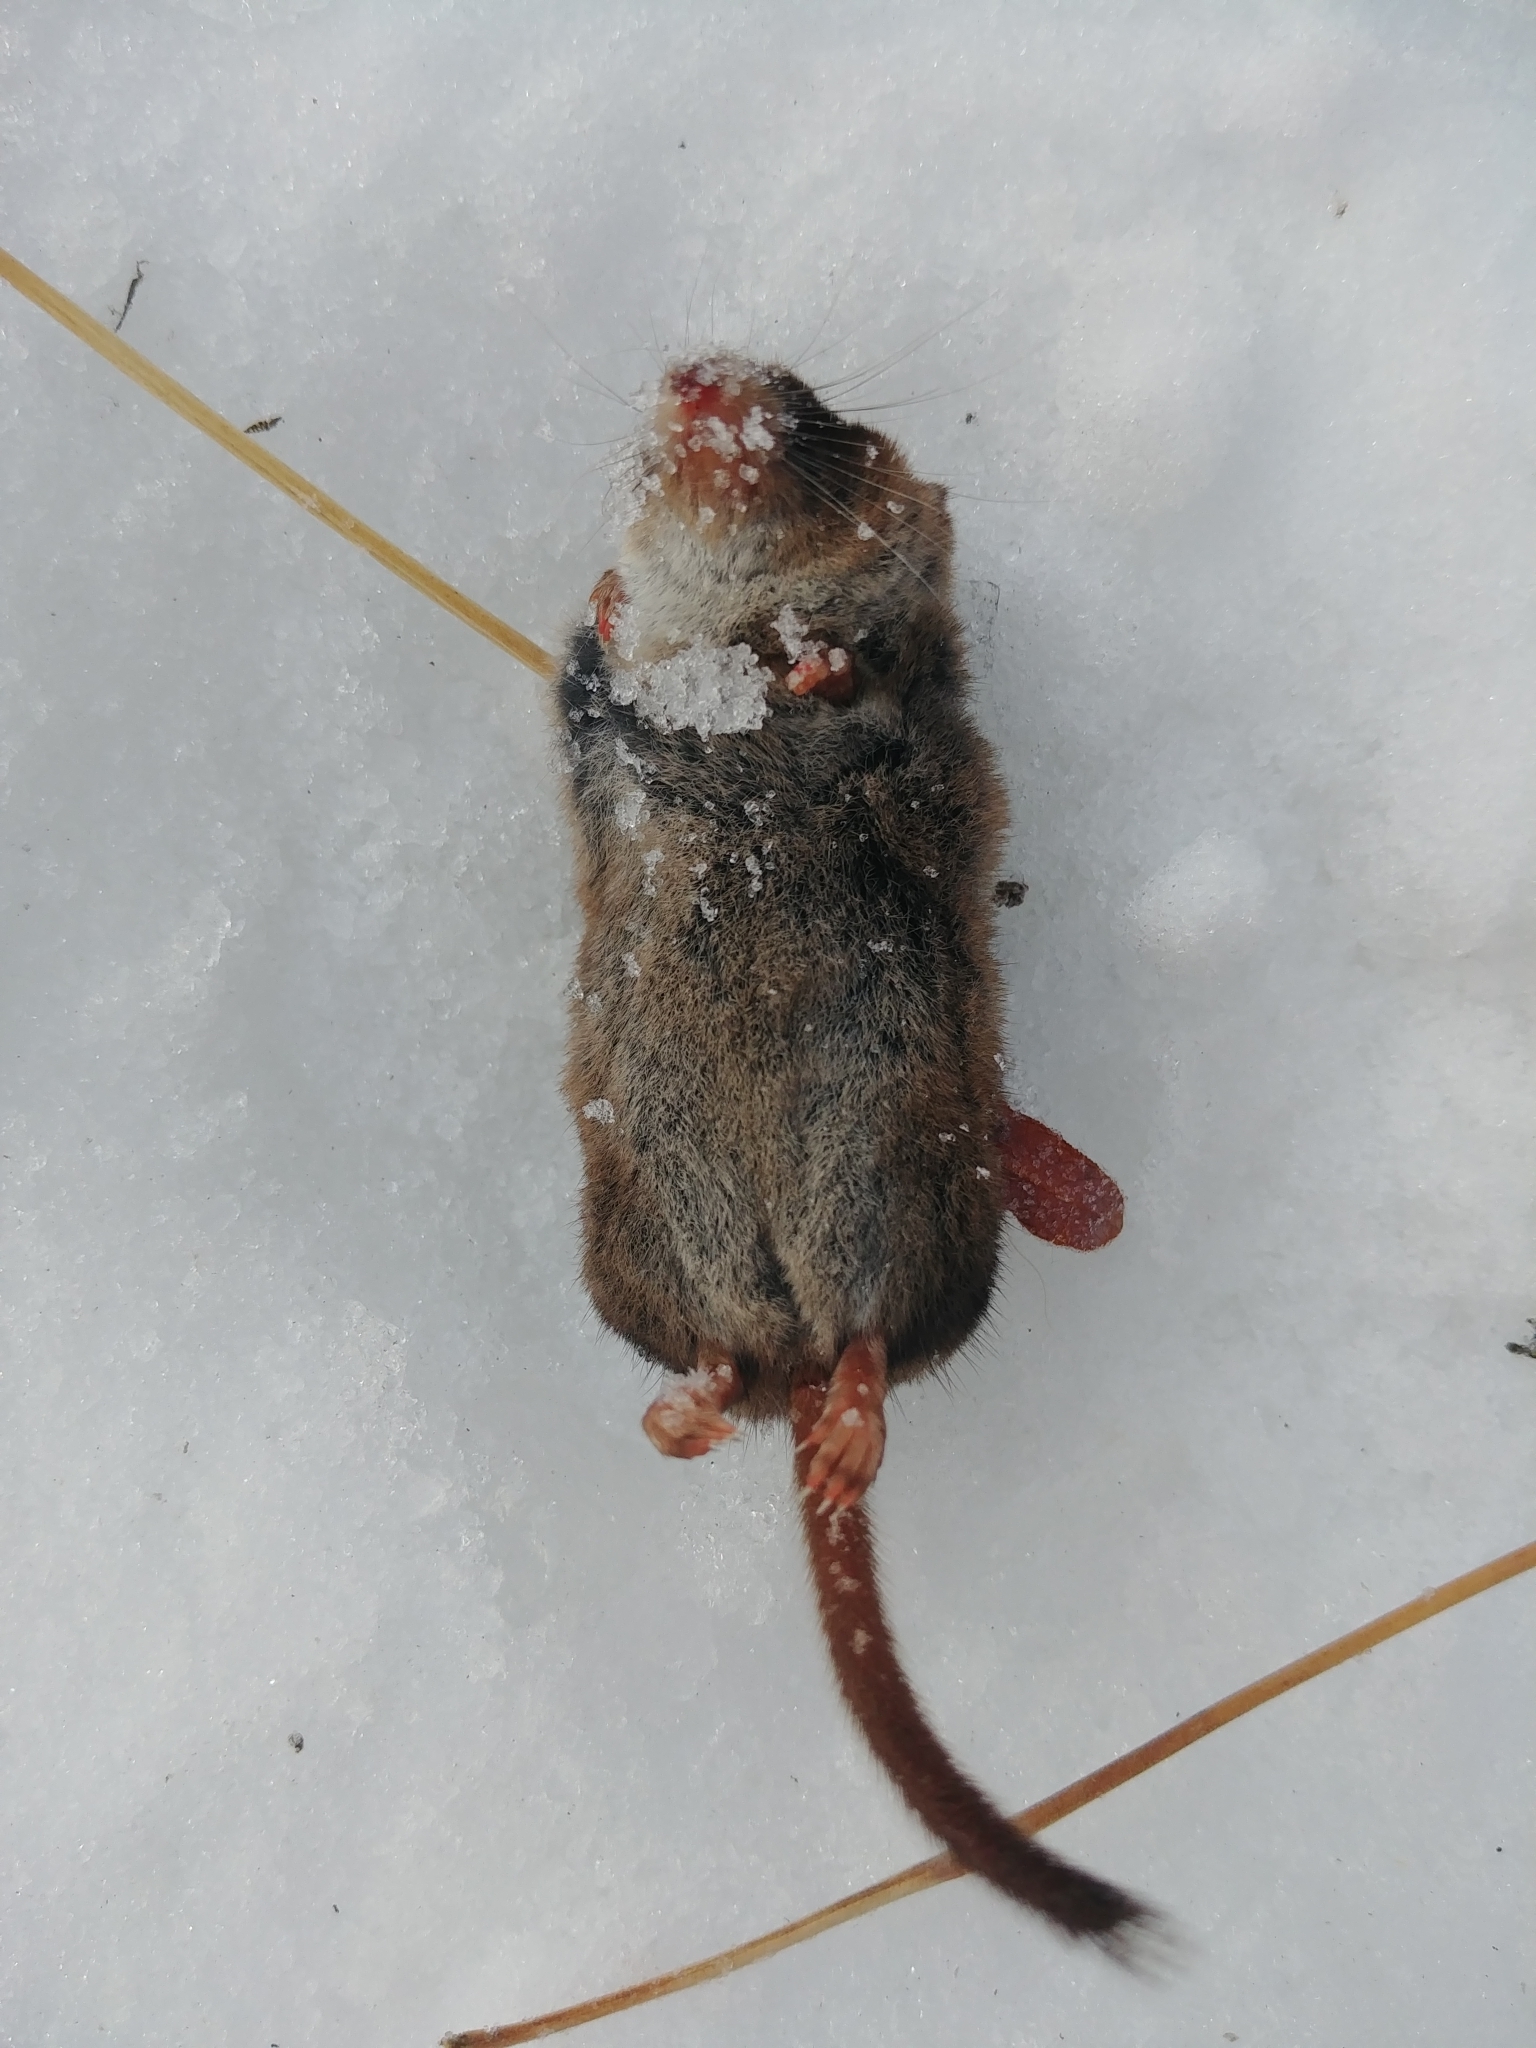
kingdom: Animalia
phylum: Chordata
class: Mammalia
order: Soricomorpha
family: Soricidae
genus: Sorex
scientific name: Sorex arcticus
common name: Arctic shrew
